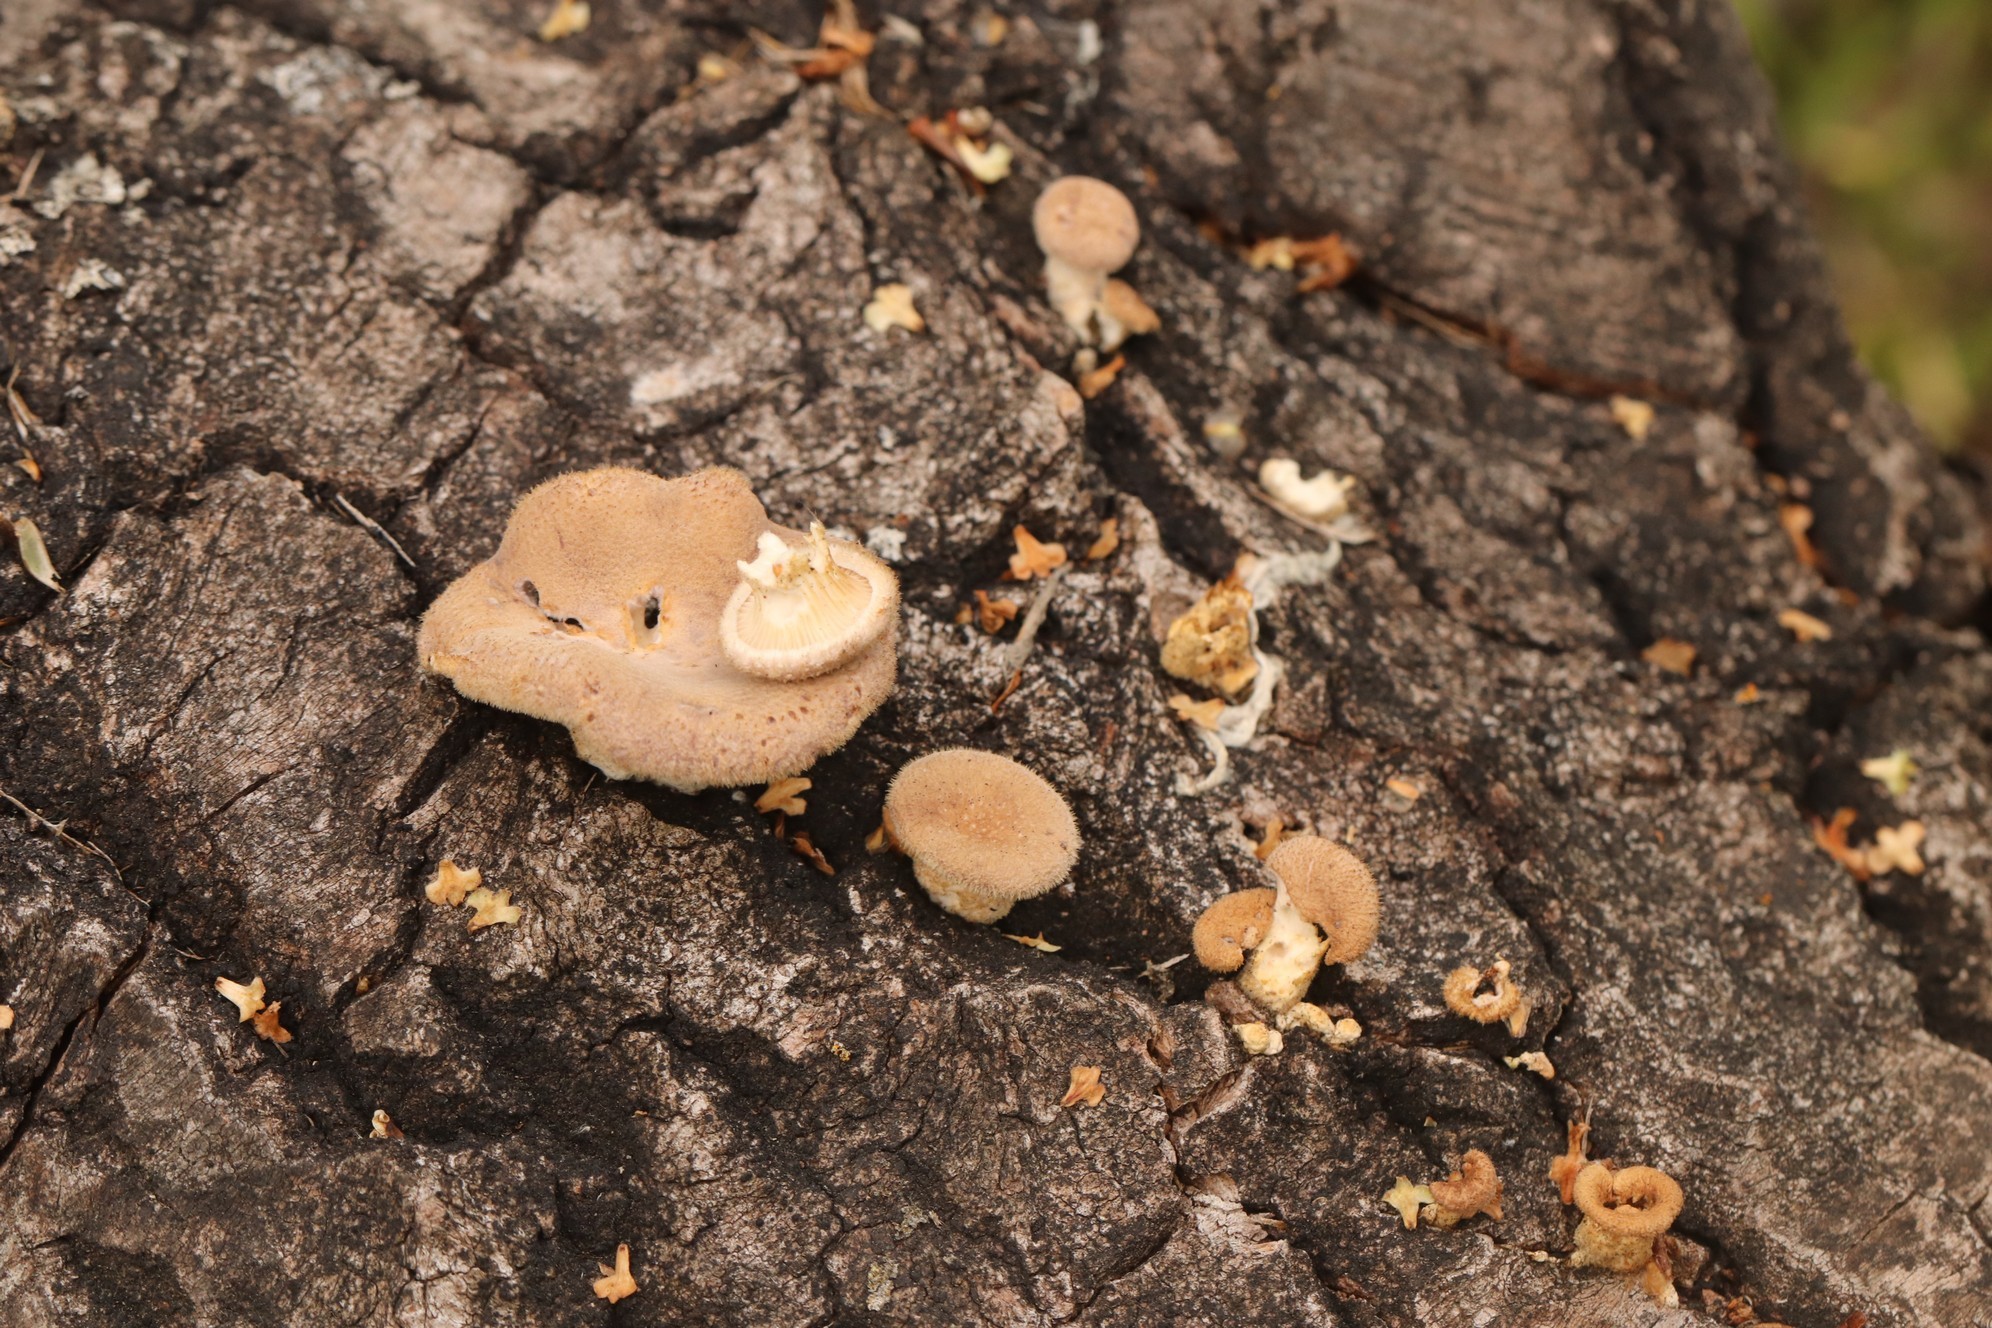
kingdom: Fungi
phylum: Basidiomycota
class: Agaricomycetes
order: Polyporales
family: Panaceae
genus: Panus
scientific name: Panus neostrigosus
